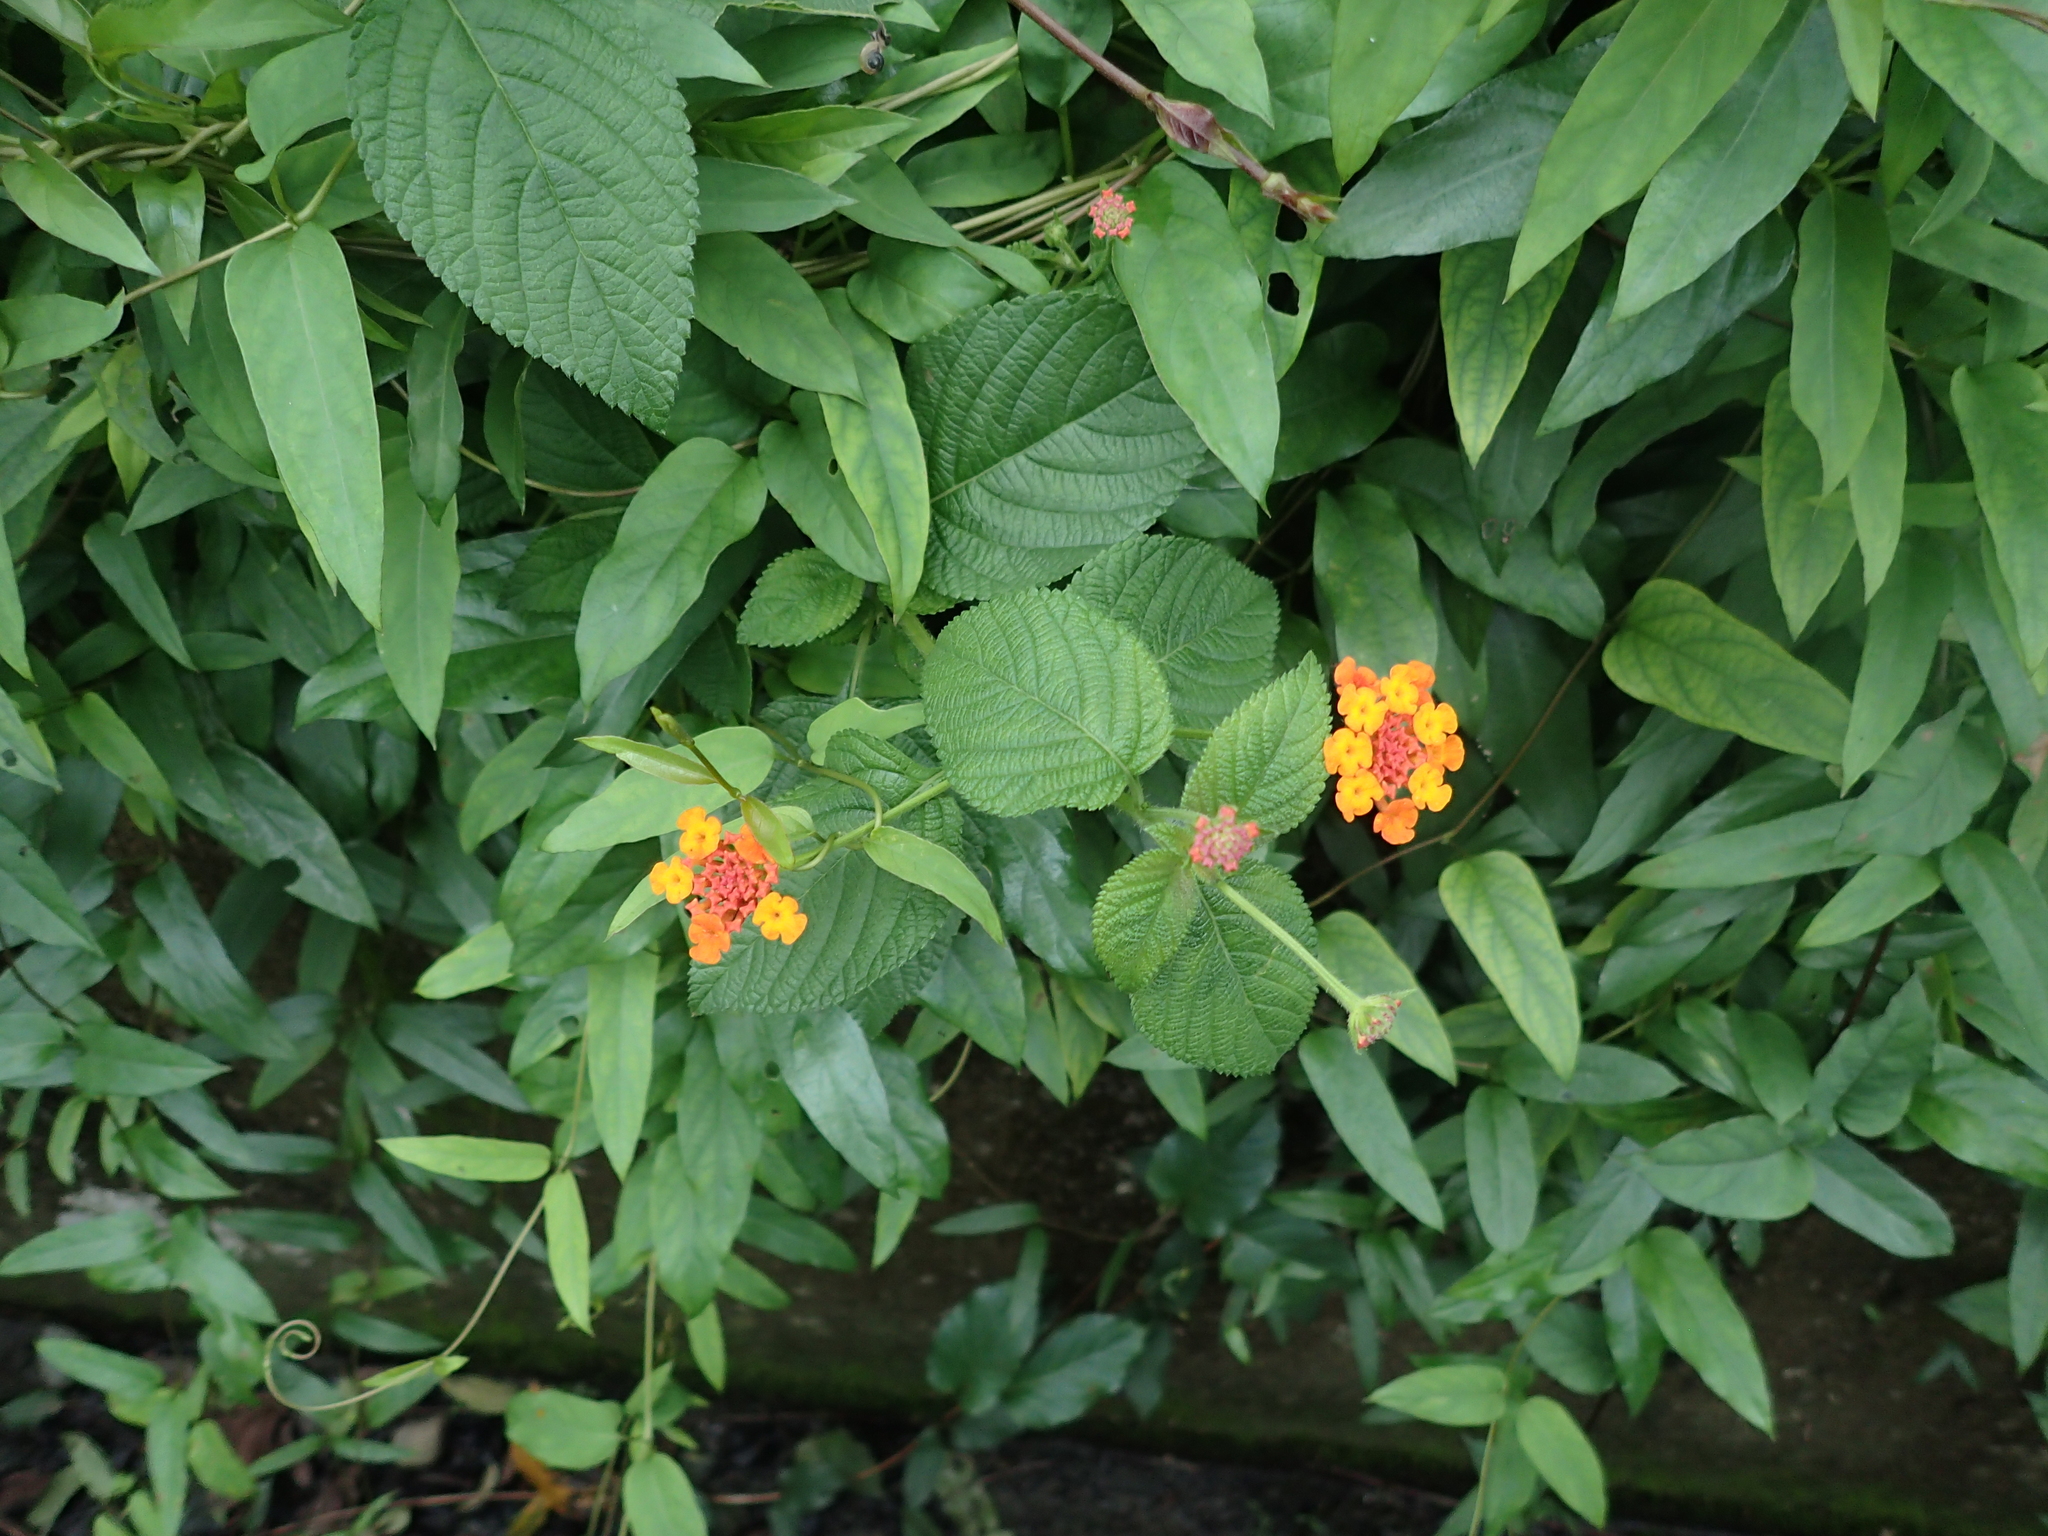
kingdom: Plantae
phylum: Tracheophyta
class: Magnoliopsida
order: Lamiales
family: Verbenaceae
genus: Lantana
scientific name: Lantana camara
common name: Lantana
